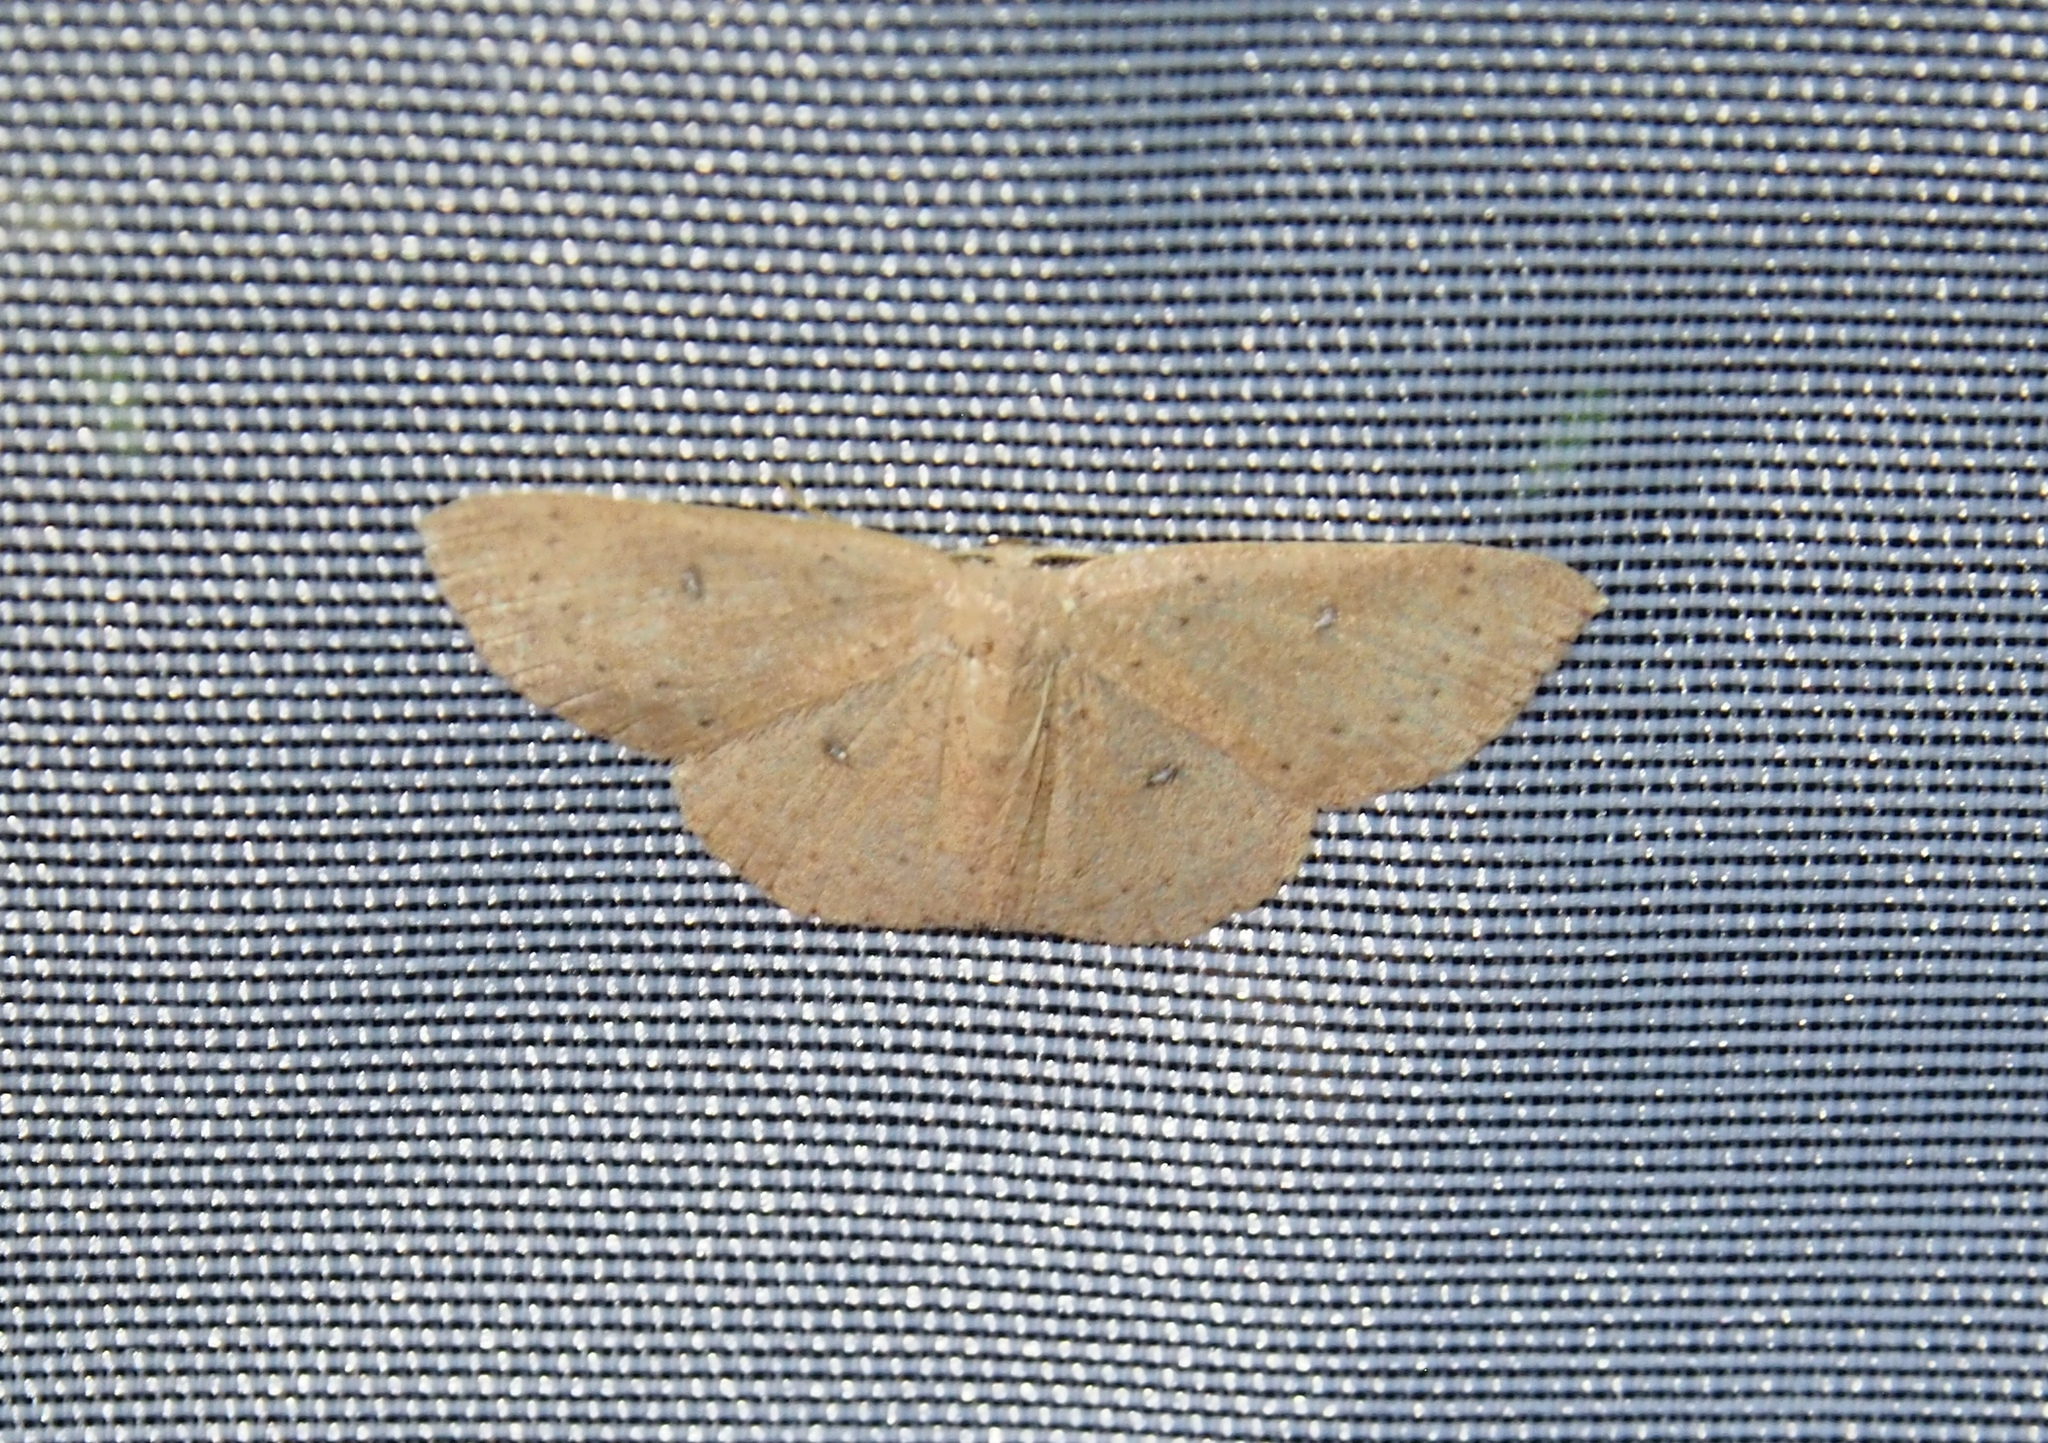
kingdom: Animalia
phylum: Arthropoda
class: Insecta
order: Lepidoptera
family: Geometridae
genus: Cyclophora
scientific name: Cyclophora packardi
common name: Packard's wave
